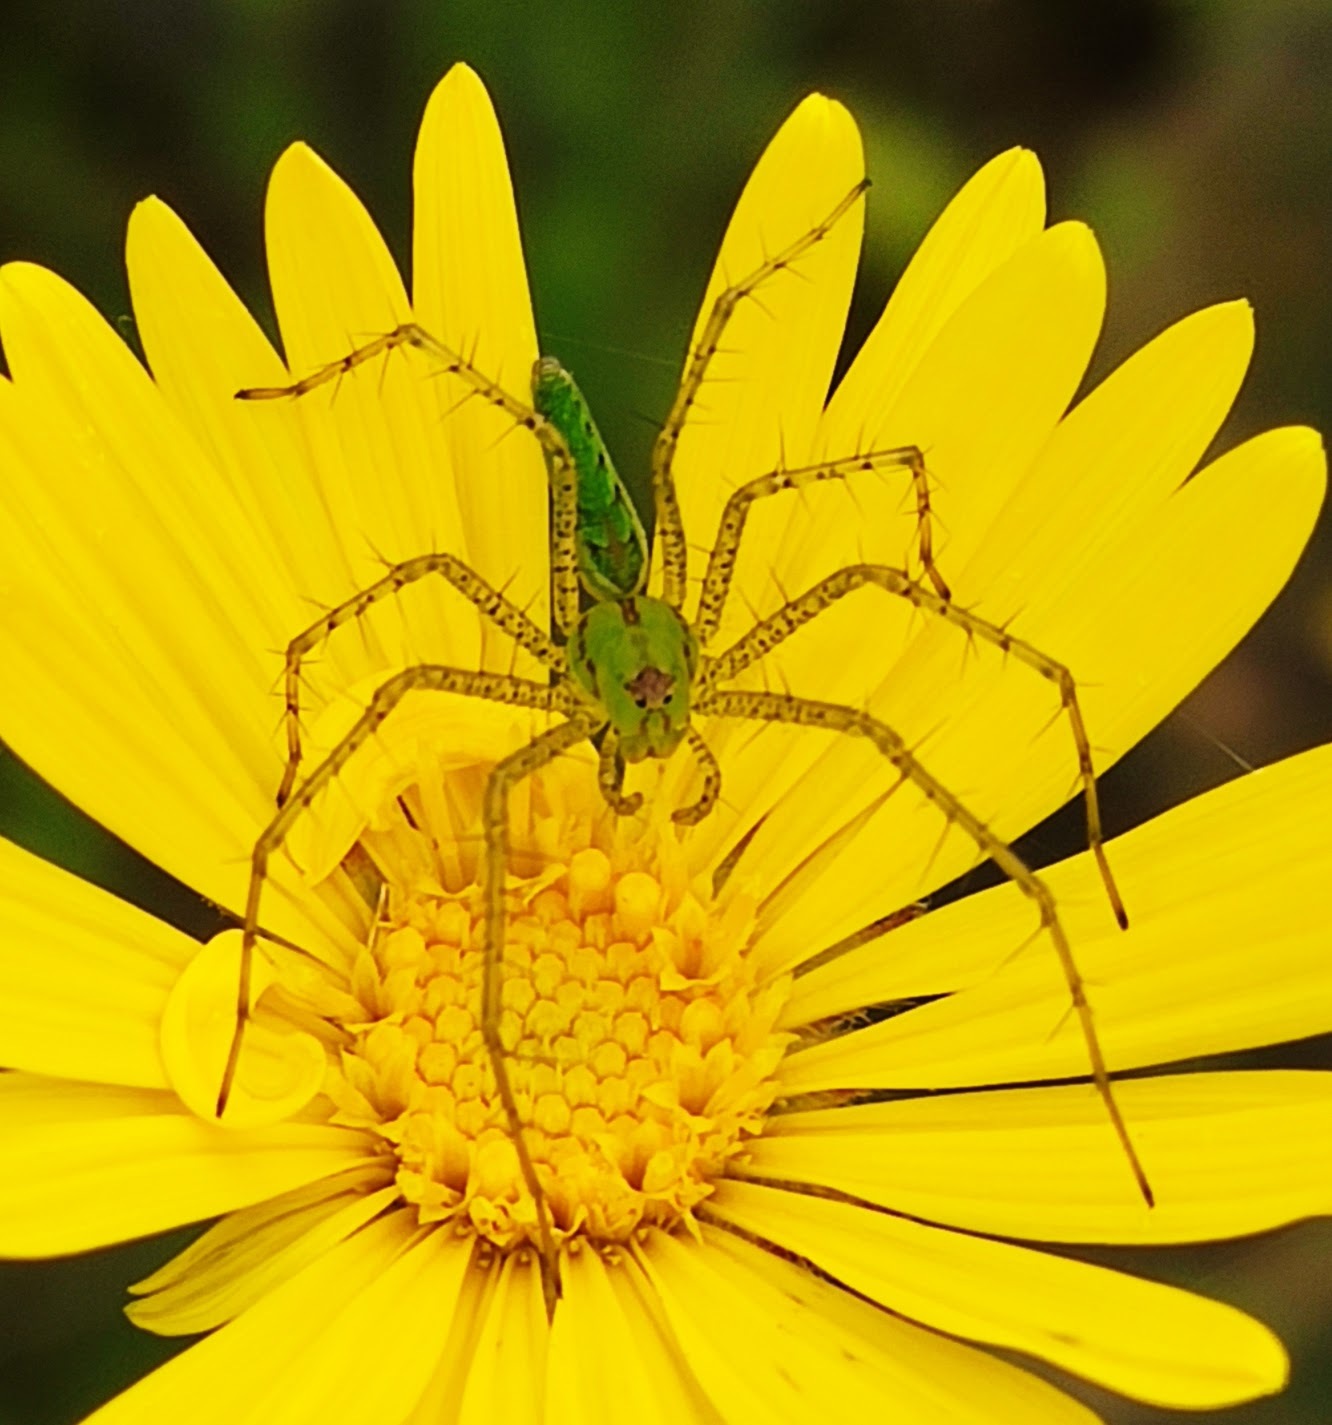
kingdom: Animalia
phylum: Arthropoda
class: Arachnida
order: Araneae
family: Oxyopidae
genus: Peucetia
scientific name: Peucetia viridans
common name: Lynx spiders
